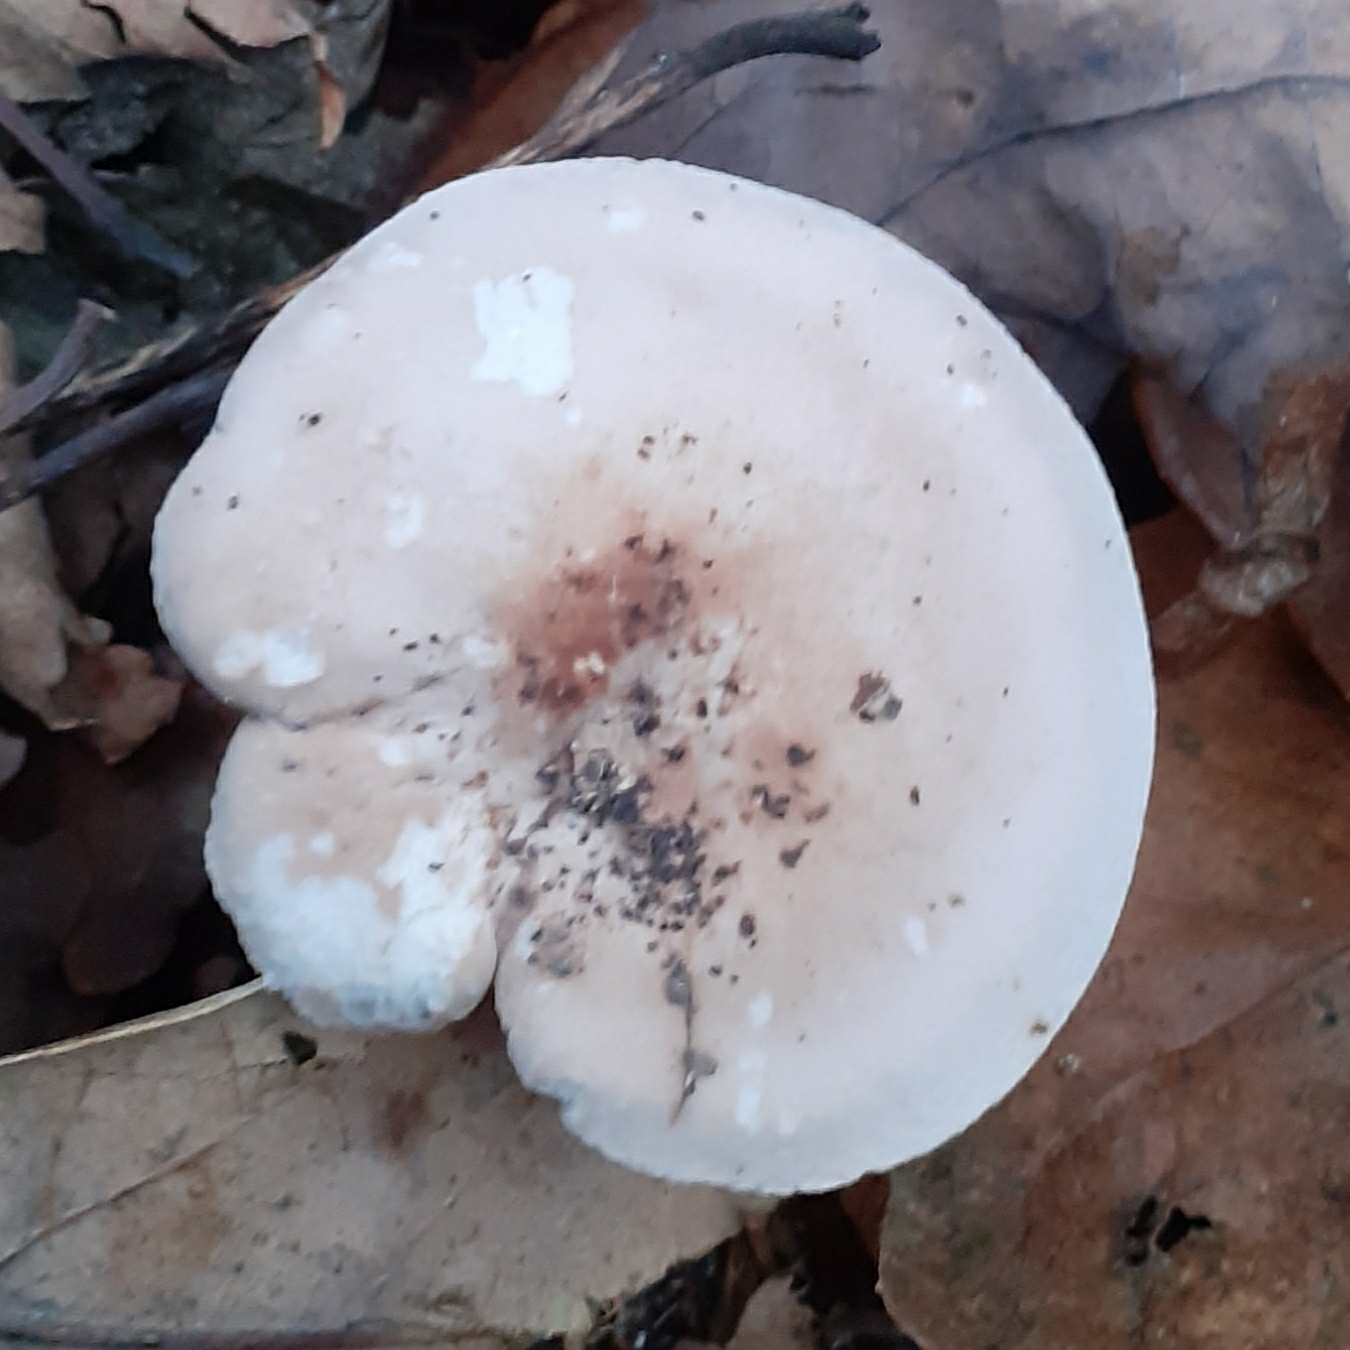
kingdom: Fungi
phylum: Basidiomycota
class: Agaricomycetes
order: Agaricales
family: Tricholomataceae
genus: Collybia
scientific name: Collybia
